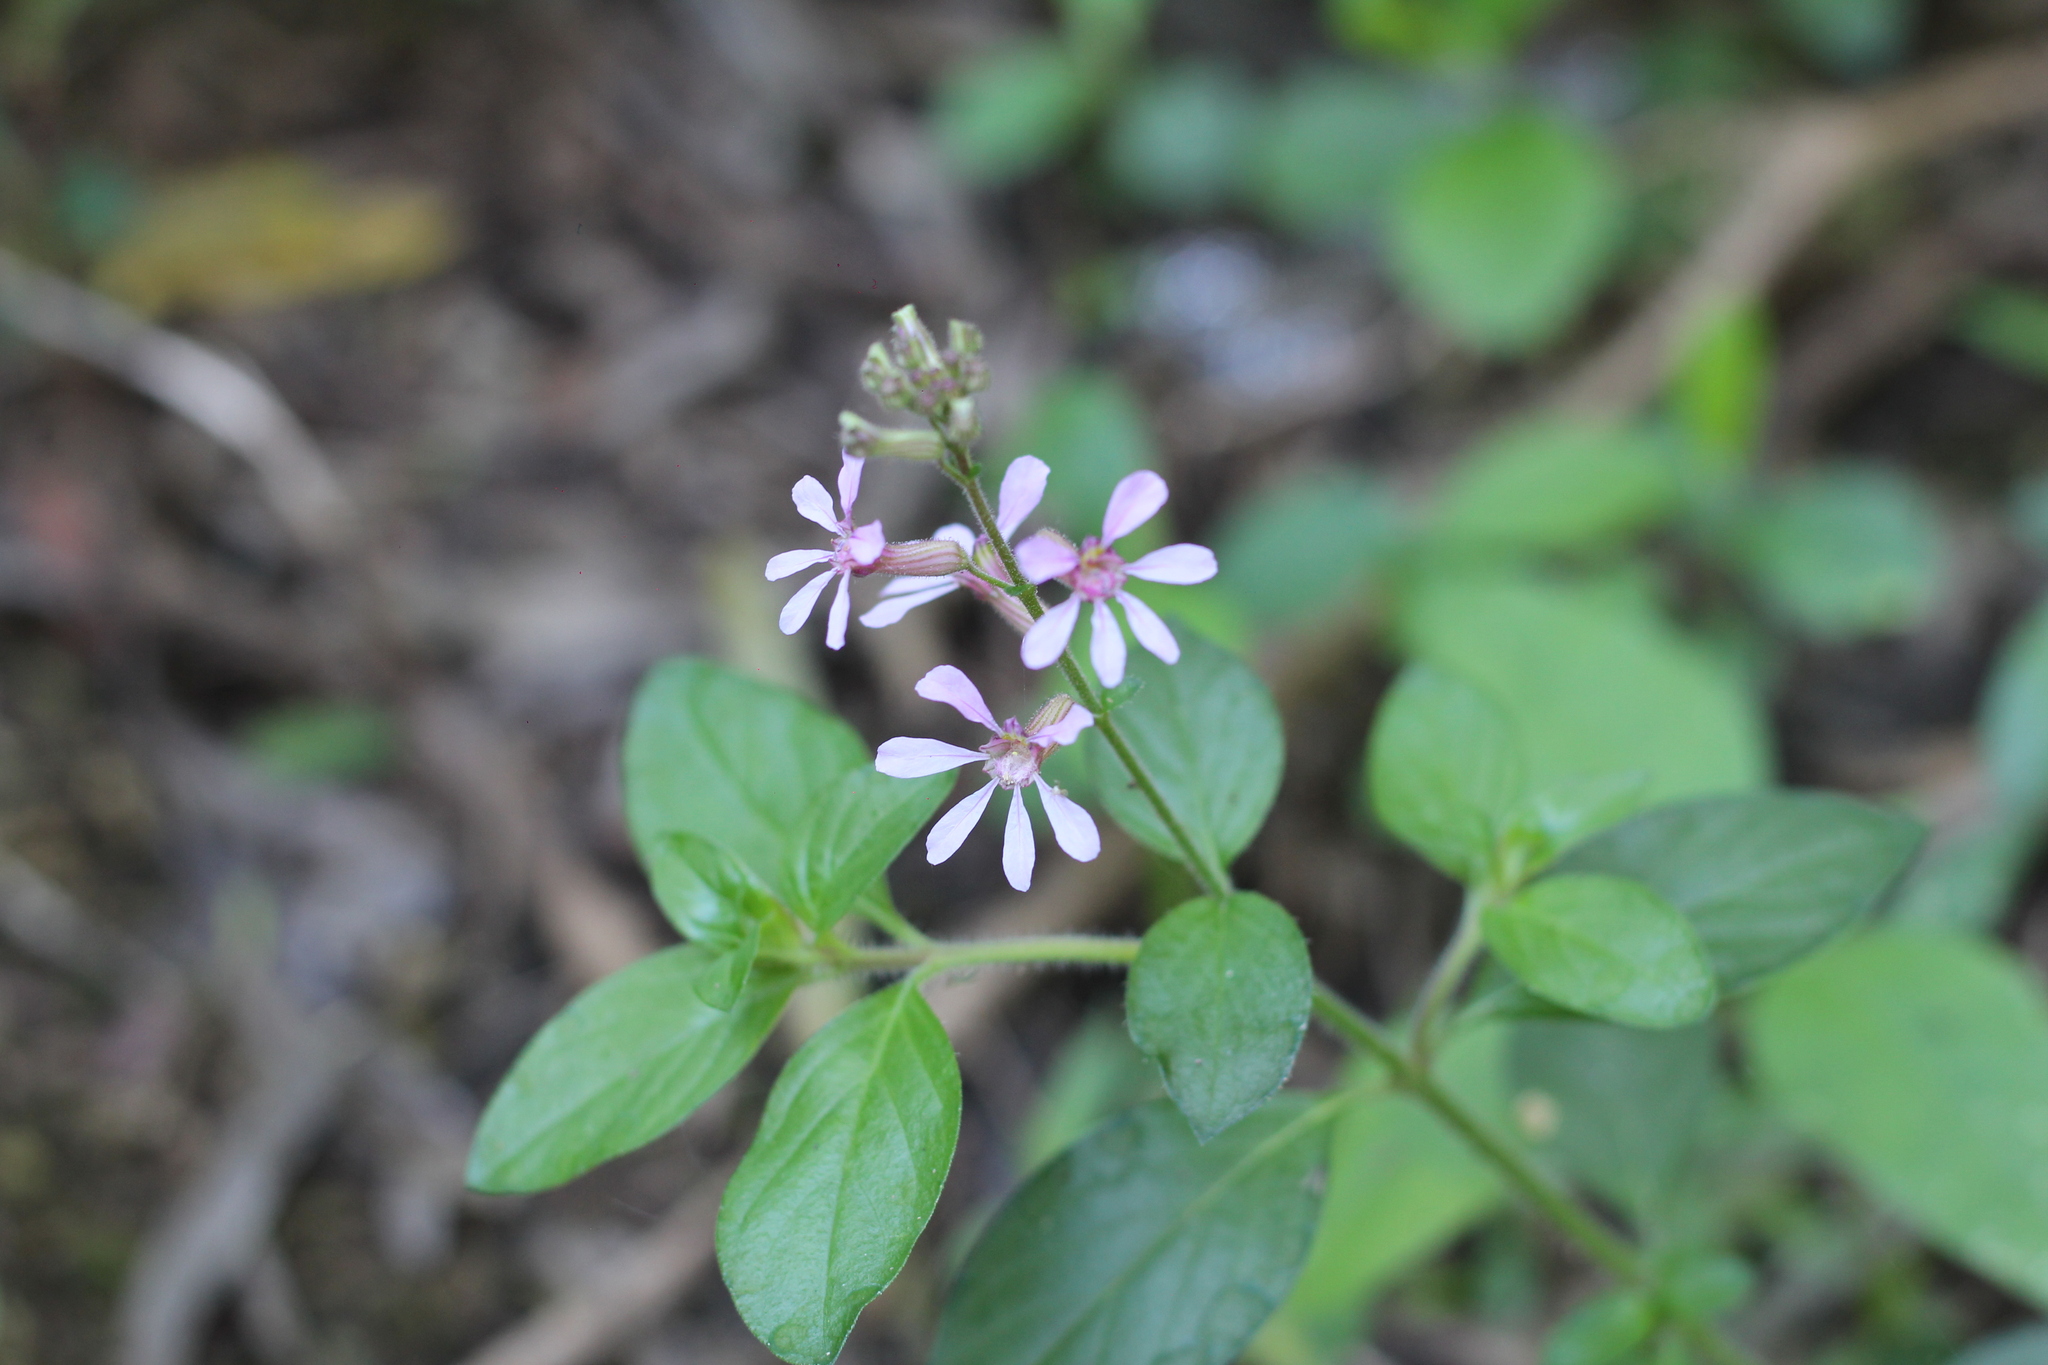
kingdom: Plantae
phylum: Tracheophyta
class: Magnoliopsida
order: Myrtales
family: Lythraceae
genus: Cuphea
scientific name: Cuphea racemosa
